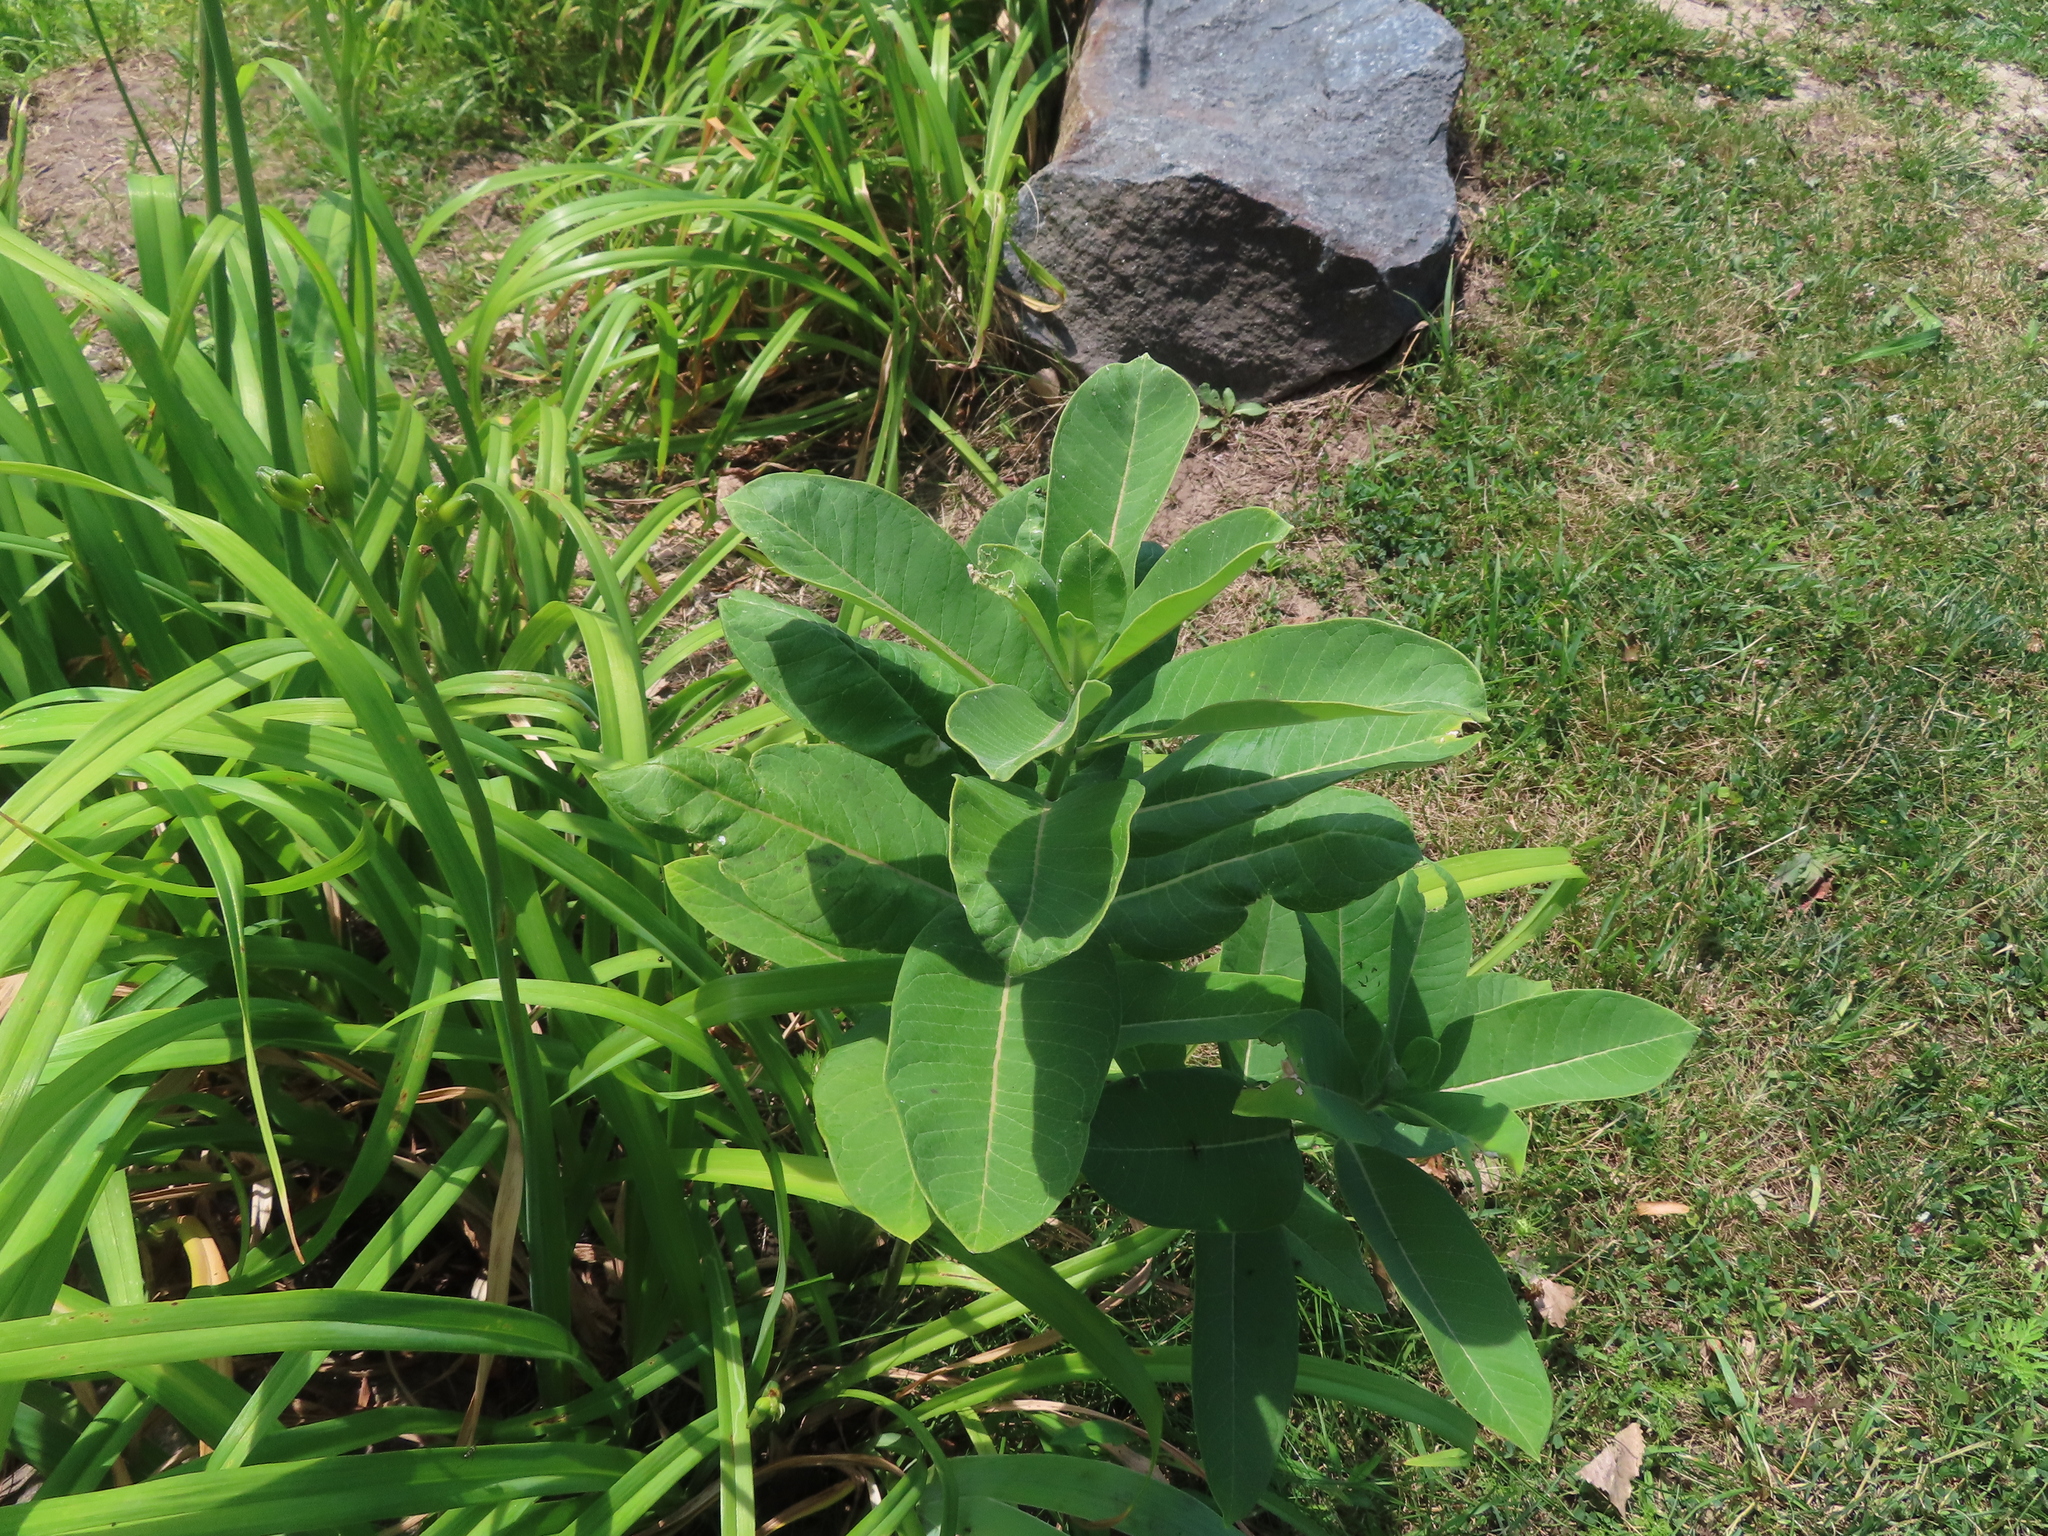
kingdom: Plantae
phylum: Tracheophyta
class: Magnoliopsida
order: Gentianales
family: Apocynaceae
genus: Asclepias
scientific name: Asclepias syriaca
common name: Common milkweed
